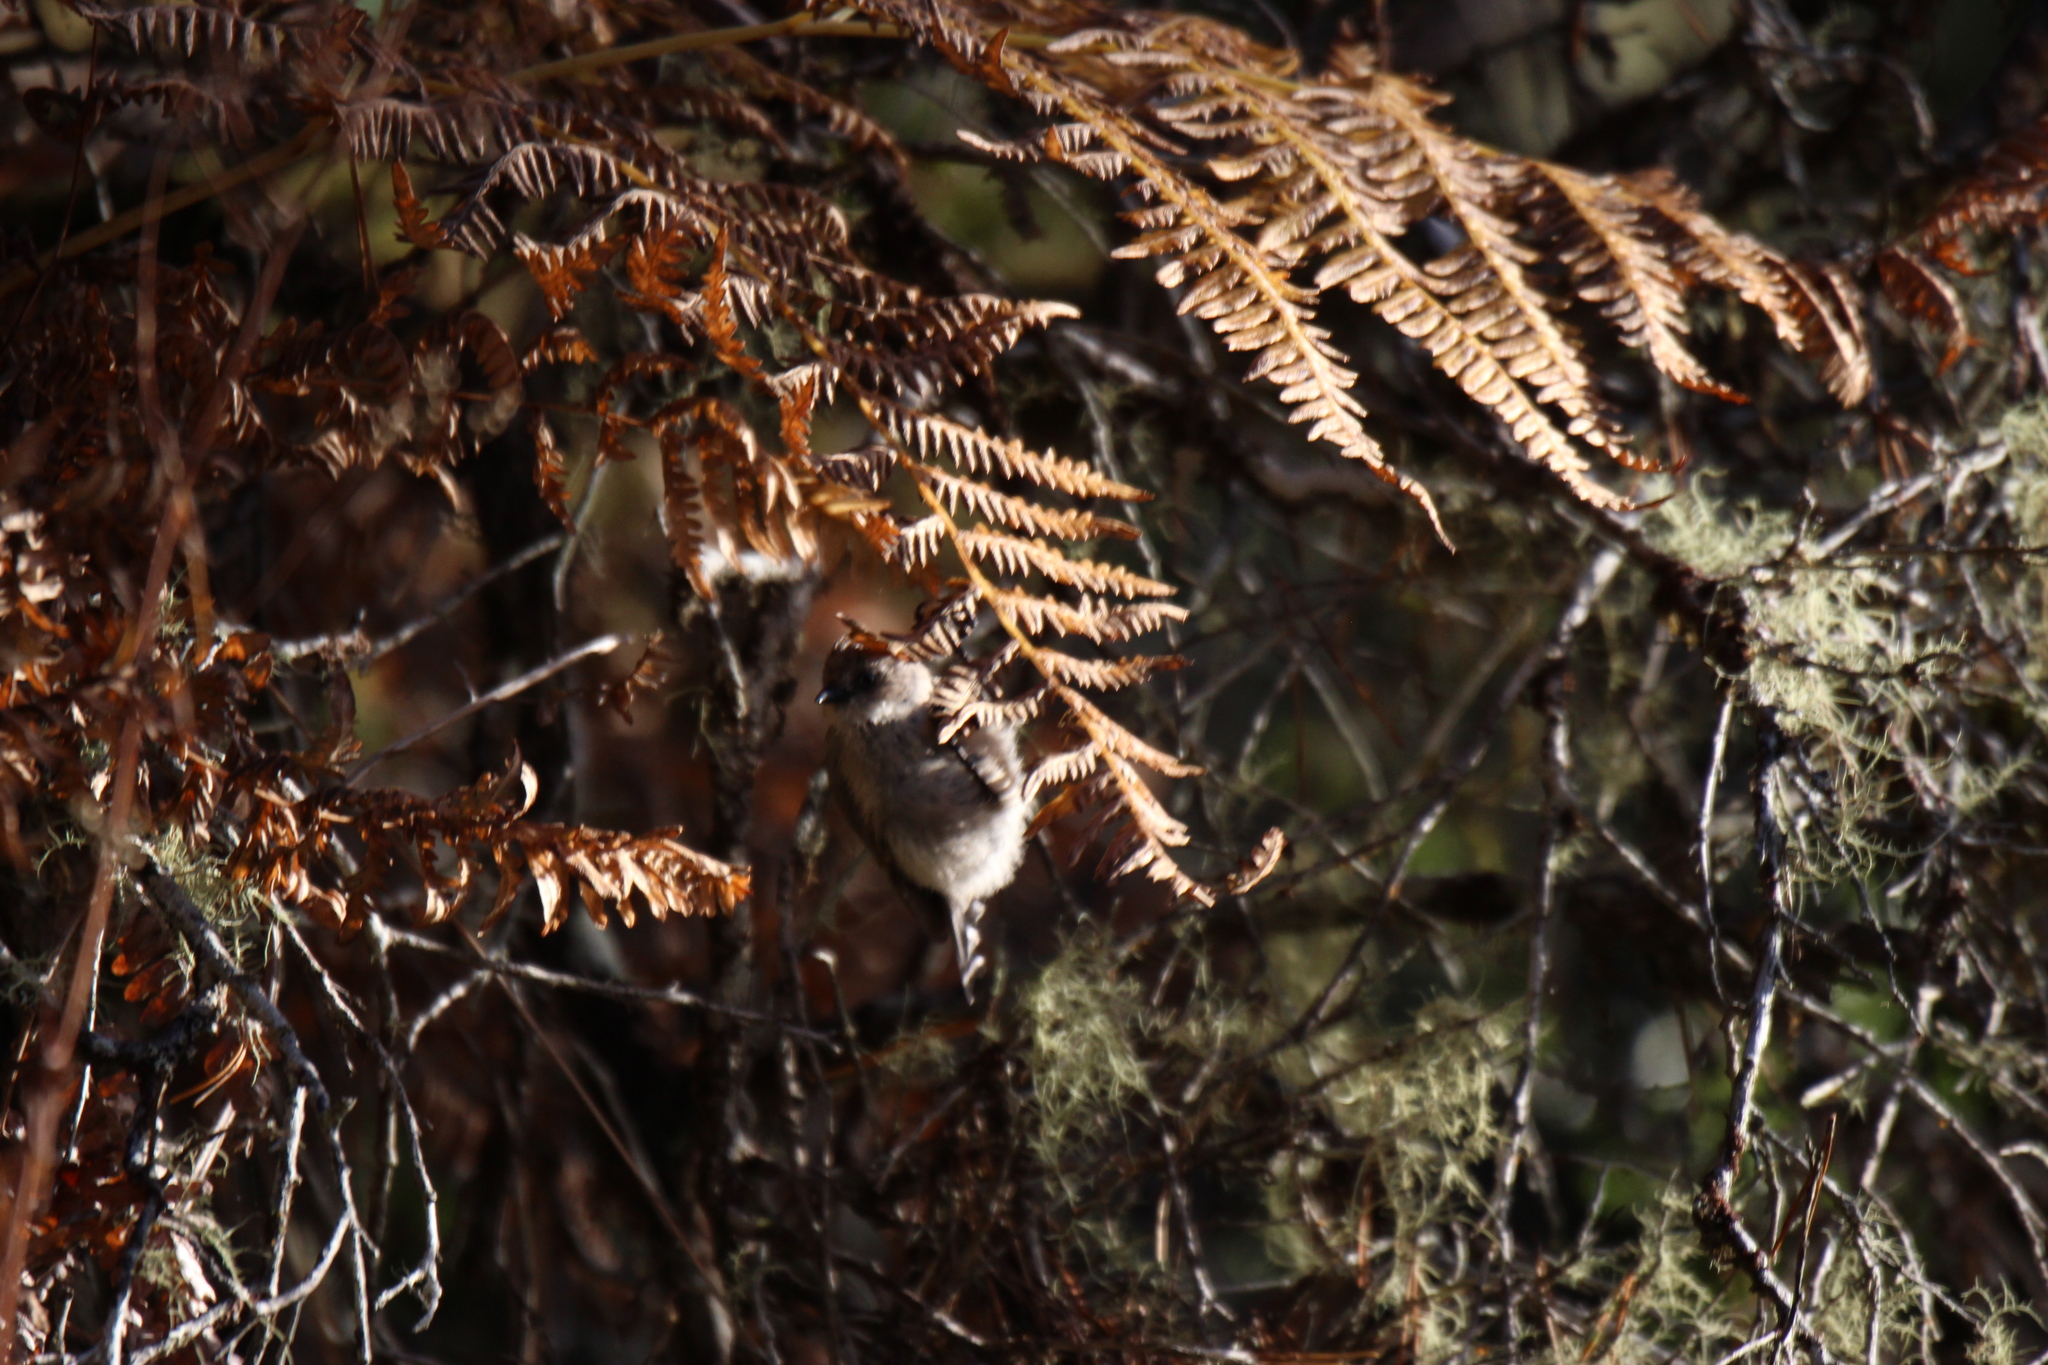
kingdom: Animalia
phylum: Chordata
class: Aves
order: Passeriformes
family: Aegithalidae
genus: Psaltriparus
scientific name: Psaltriparus minimus
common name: American bushtit
